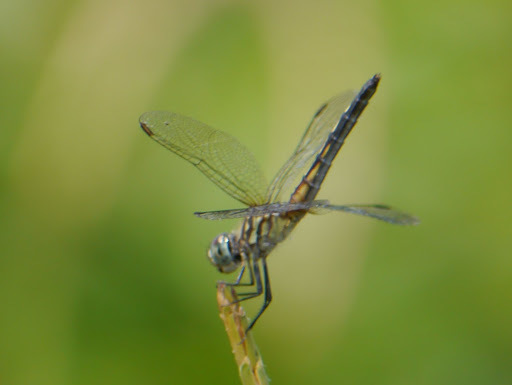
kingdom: Animalia
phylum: Arthropoda
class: Insecta
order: Odonata
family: Libellulidae
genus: Pachydiplax
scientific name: Pachydiplax longipennis
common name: Blue dasher
